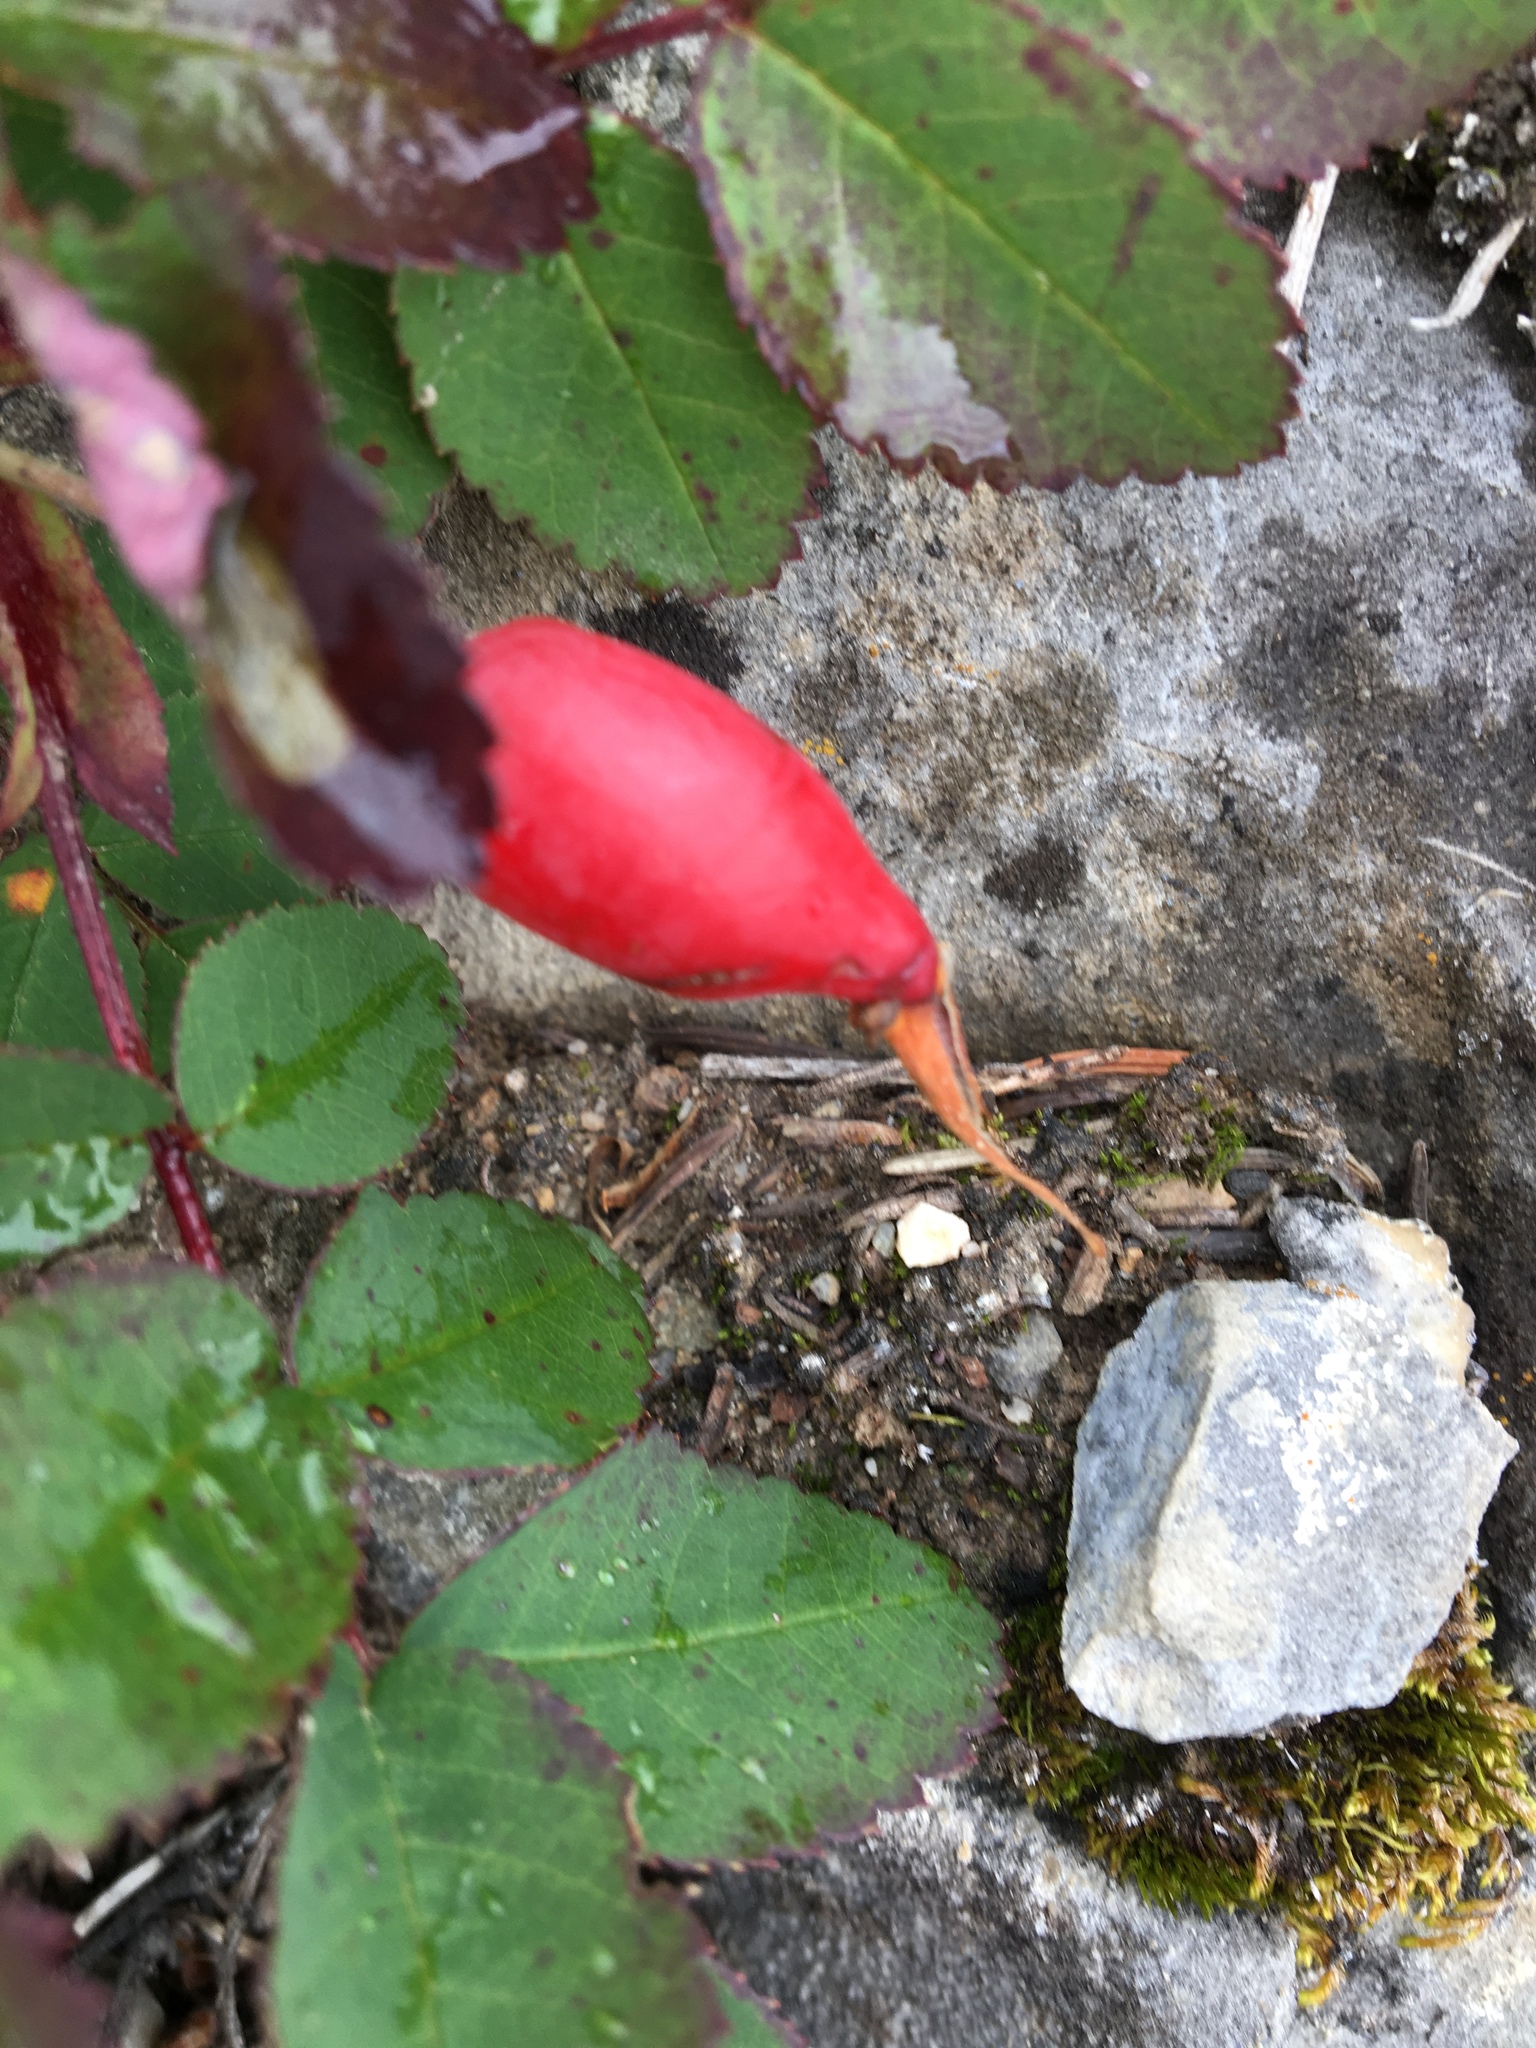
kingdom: Plantae
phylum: Tracheophyta
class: Magnoliopsida
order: Rosales
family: Rosaceae
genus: Rosa
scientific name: Rosa acicularis
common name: Prickly rose
